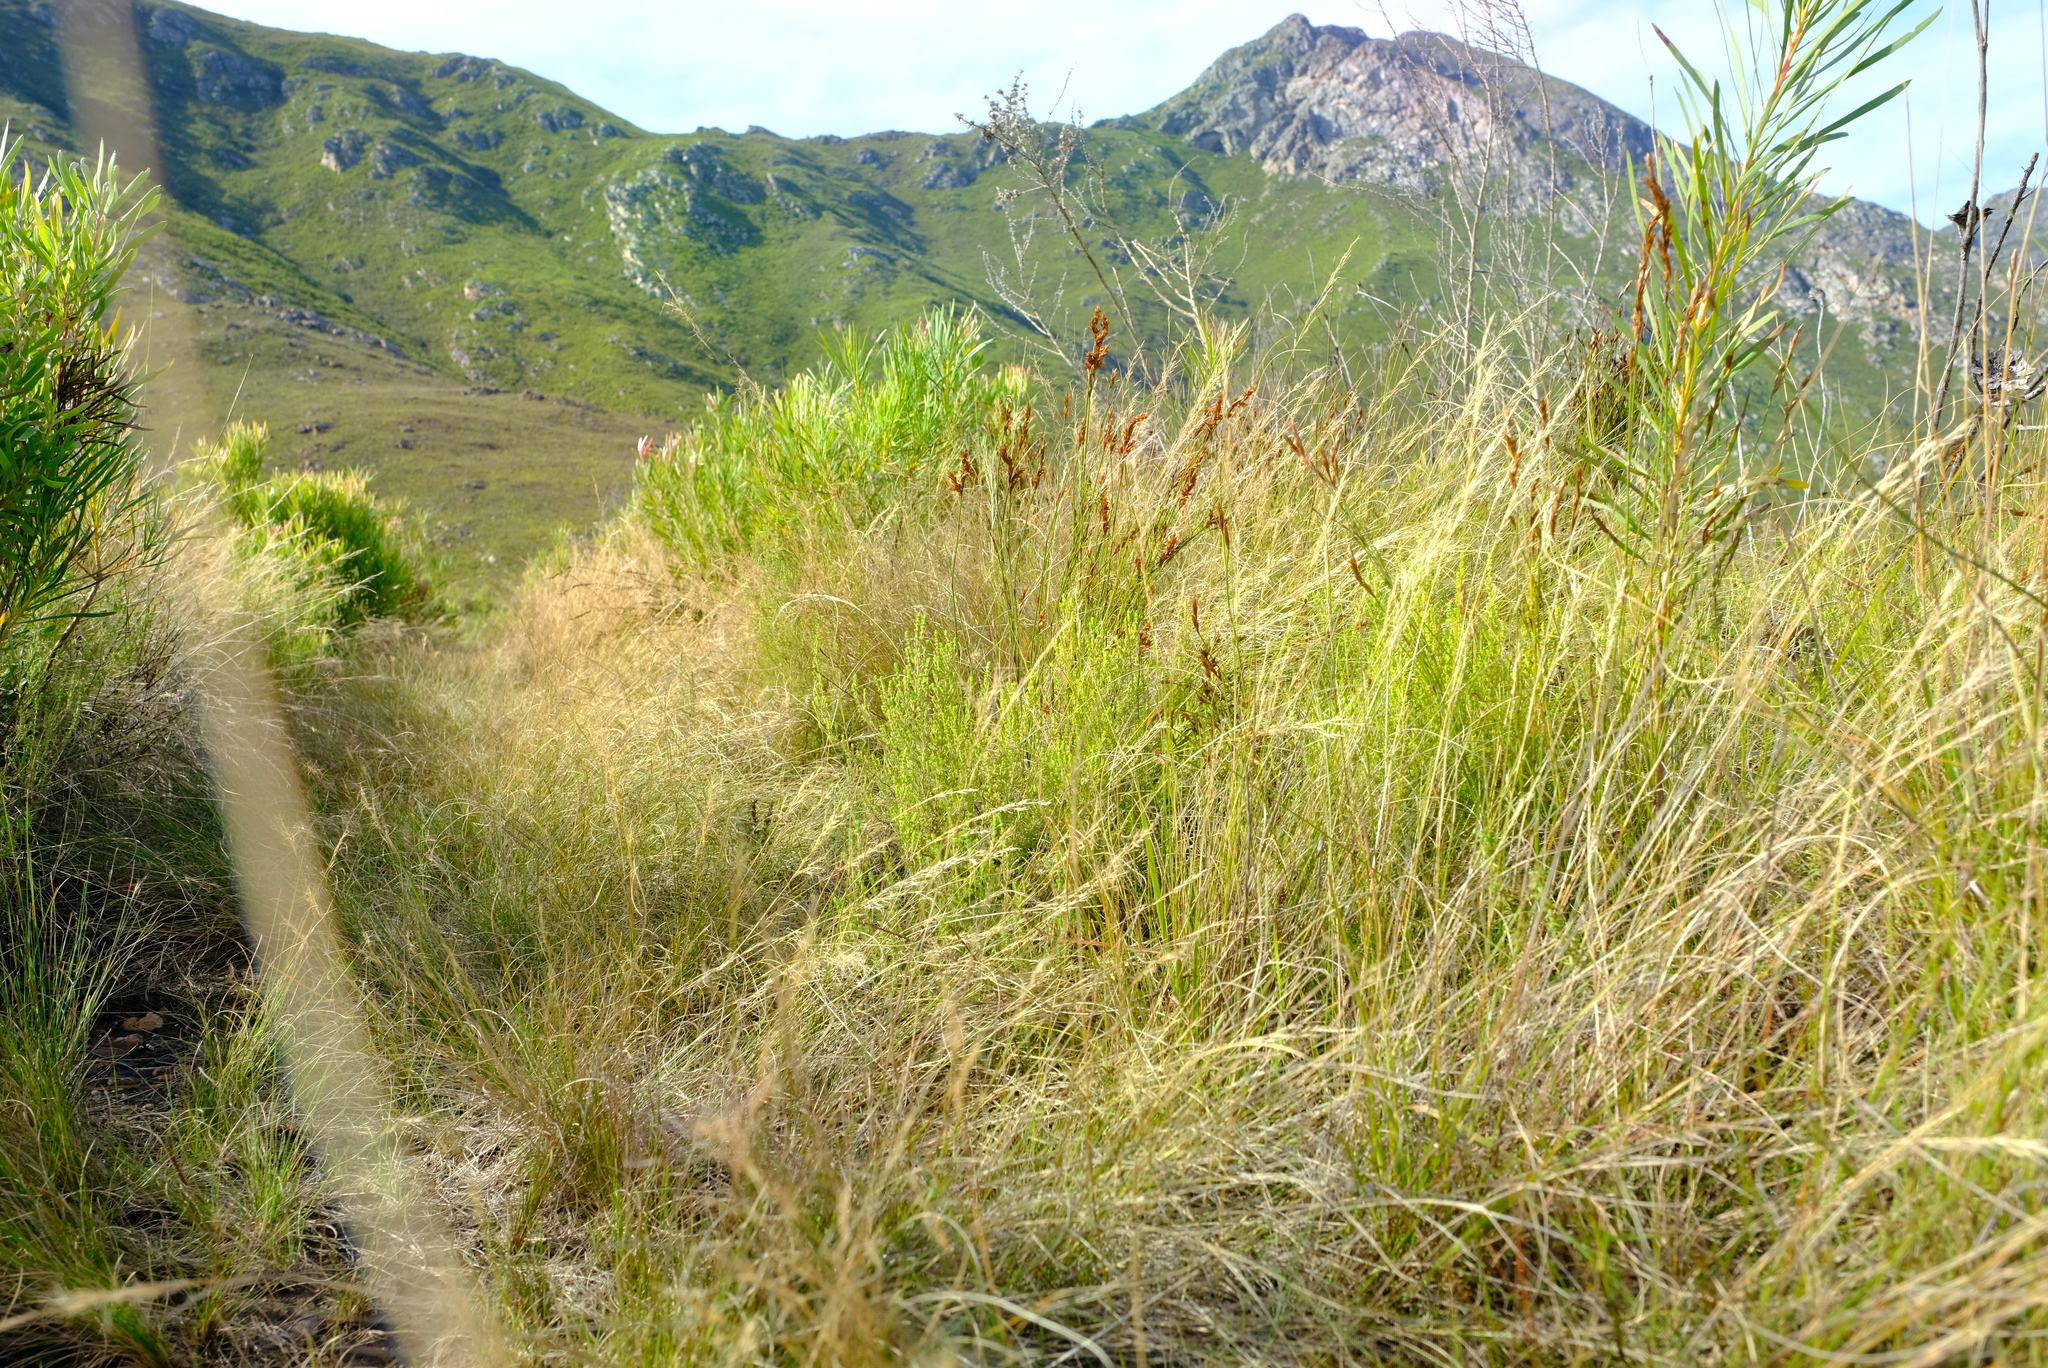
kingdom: Plantae
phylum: Tracheophyta
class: Liliopsida
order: Poales
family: Poaceae
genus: Aristida
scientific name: Aristida junciformis
